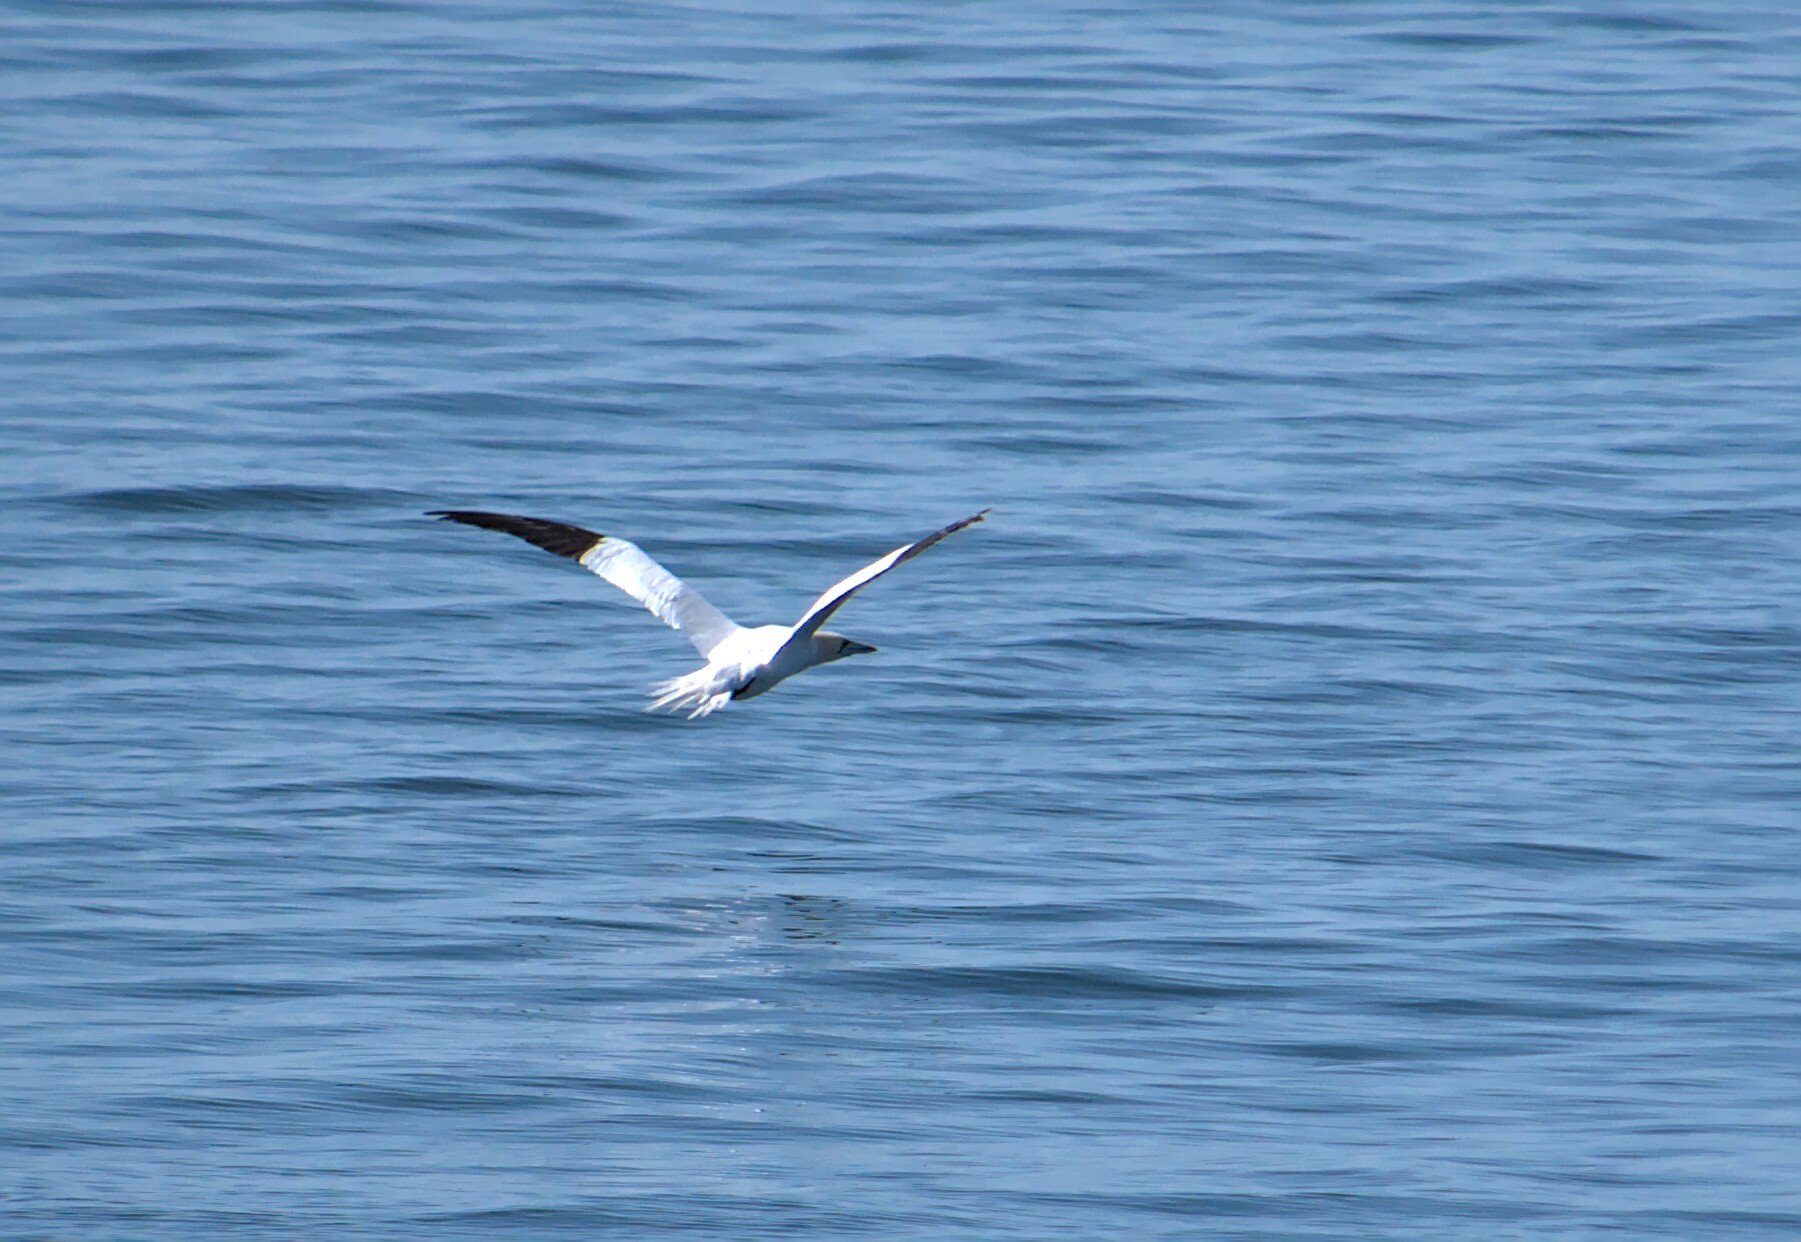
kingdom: Animalia
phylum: Chordata
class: Aves
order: Suliformes
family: Sulidae
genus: Morus
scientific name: Morus bassanus
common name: Northern gannet
